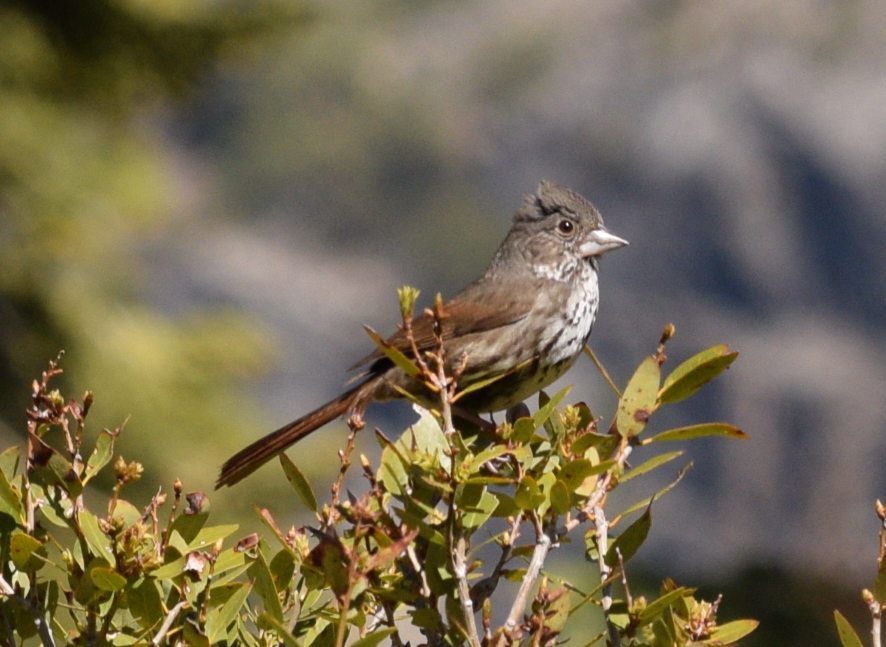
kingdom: Animalia
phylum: Chordata
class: Aves
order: Passeriformes
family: Passerellidae
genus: Passerella
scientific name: Passerella iliaca
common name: Fox sparrow
